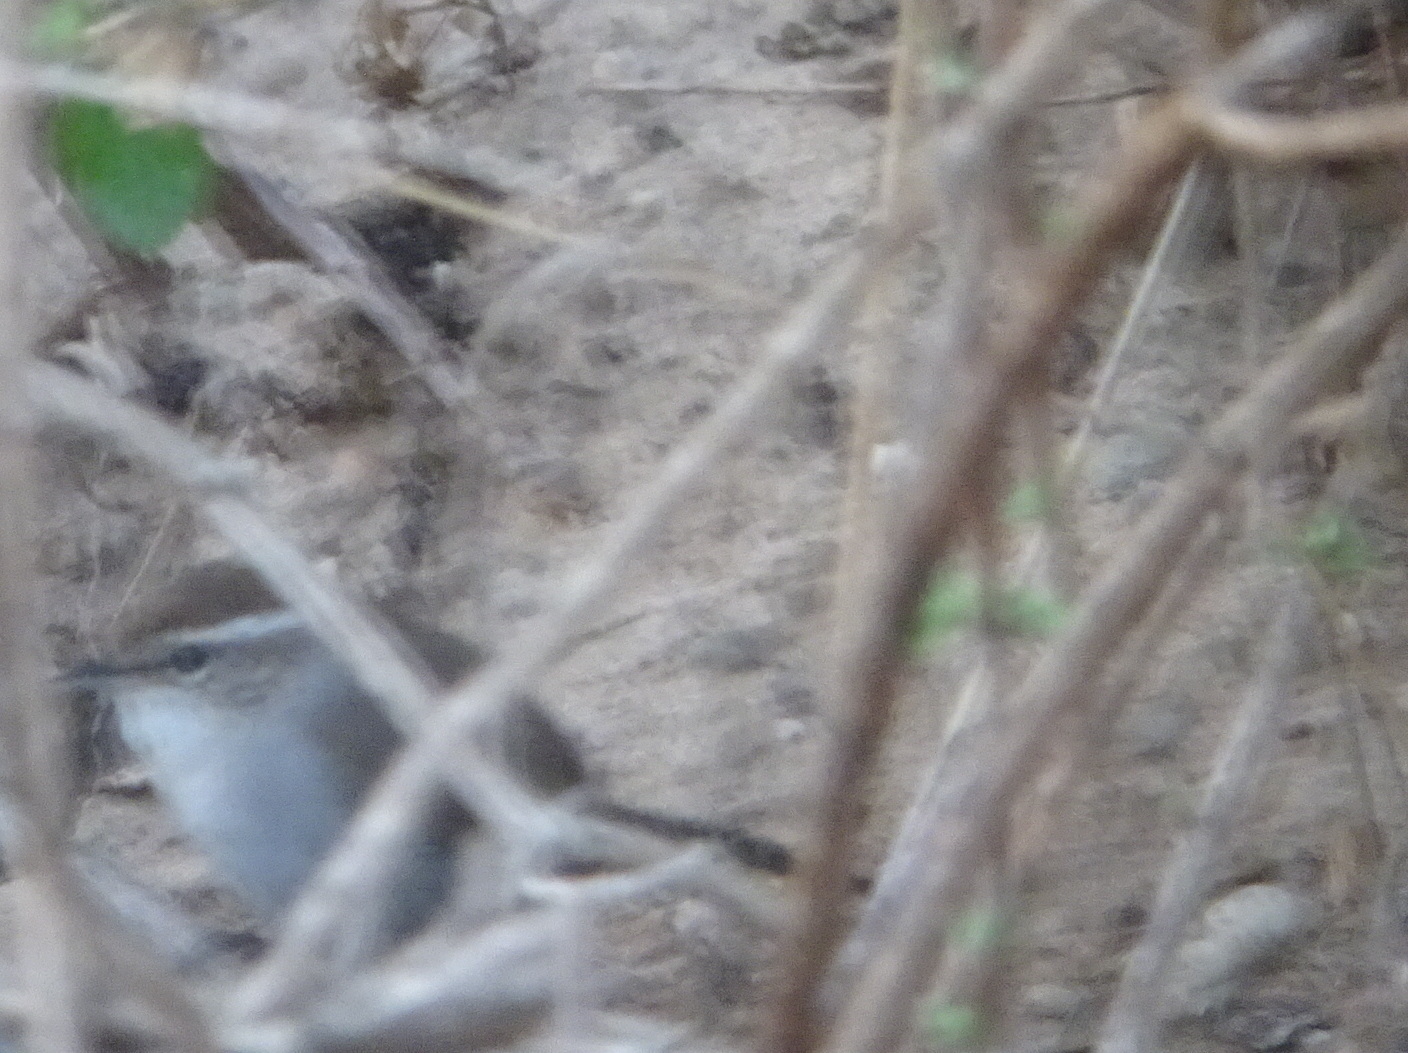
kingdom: Animalia
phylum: Chordata
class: Aves
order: Passeriformes
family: Troglodytidae
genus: Thryomanes
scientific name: Thryomanes bewickii
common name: Bewick's wren
